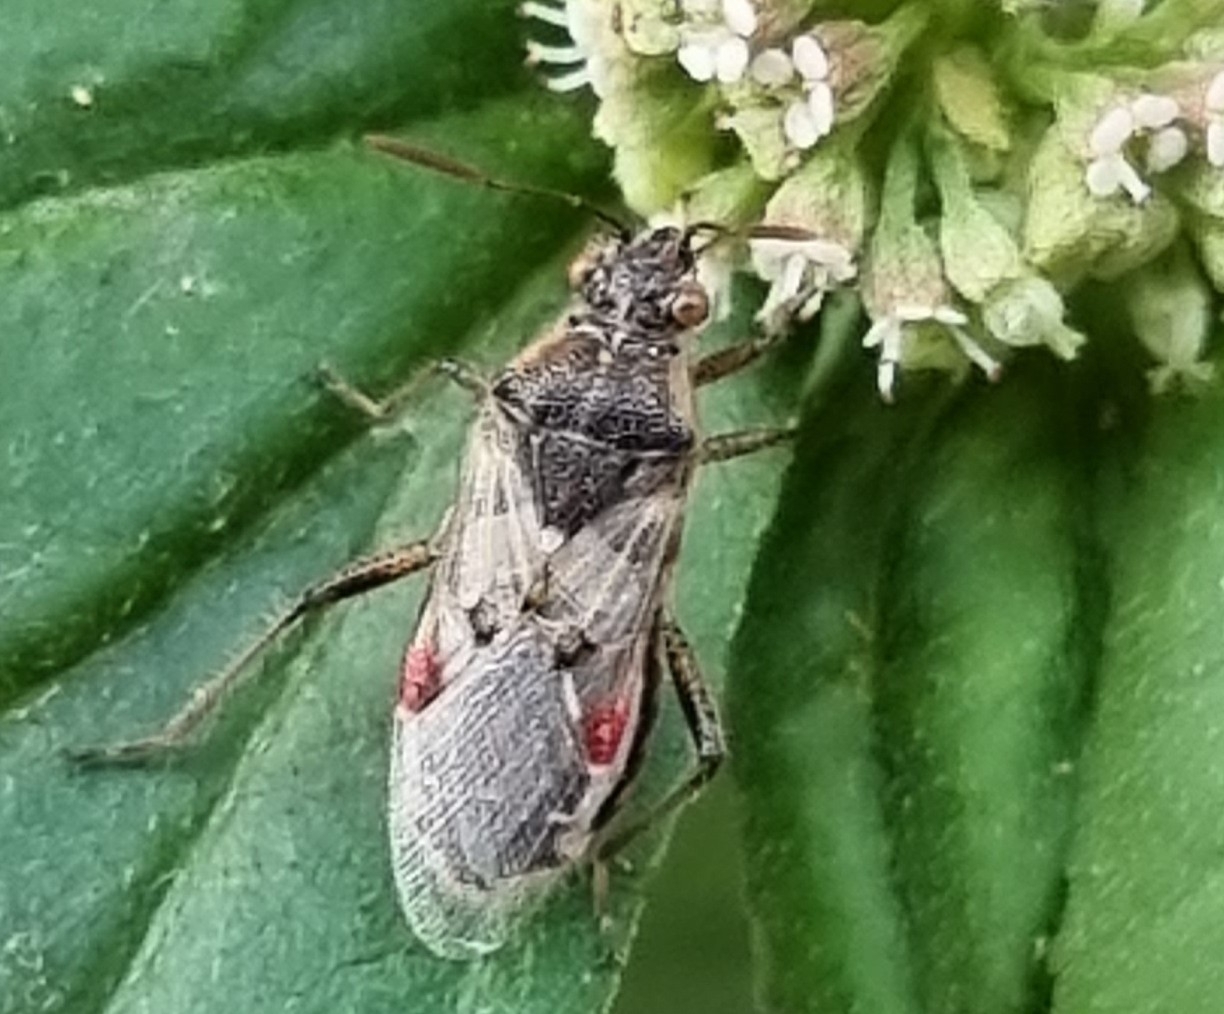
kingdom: Animalia
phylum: Arthropoda
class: Insecta
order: Hemiptera
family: Rhopalidae
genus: Liorhyssus
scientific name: Liorhyssus hyalinus
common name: Scentless plant bug
